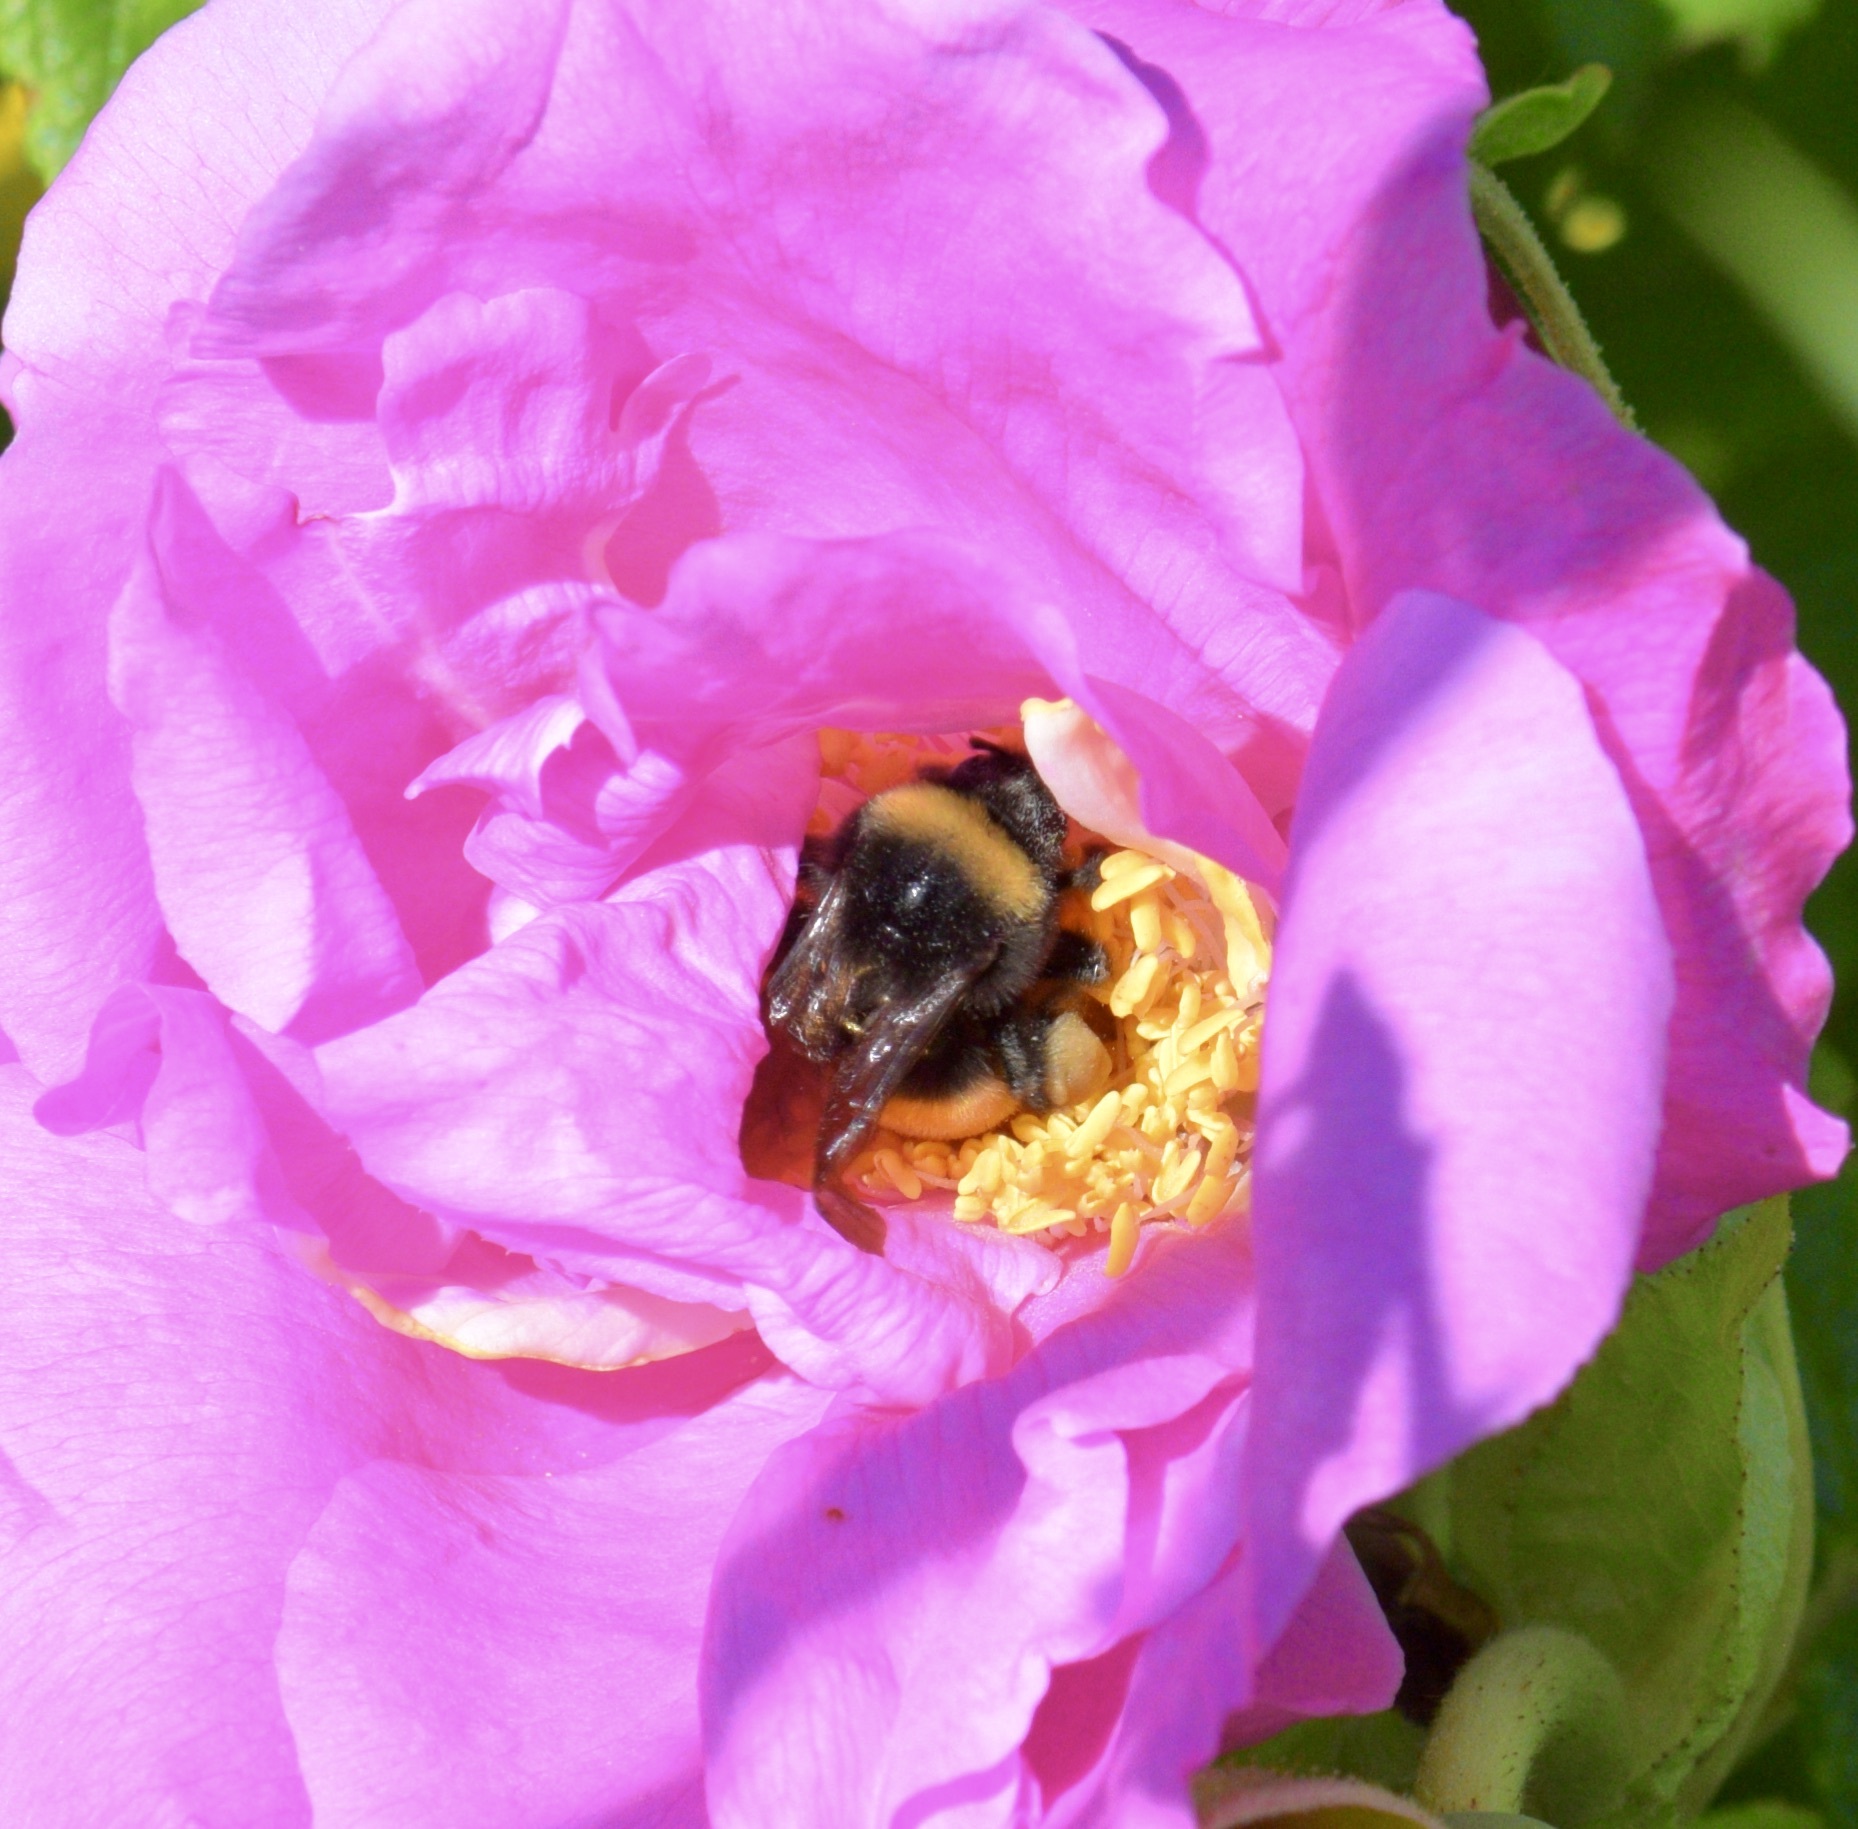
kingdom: Animalia
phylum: Arthropoda
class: Insecta
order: Hymenoptera
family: Apidae
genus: Bombus
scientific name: Bombus terricola
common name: Yellow-banded bumble bee
